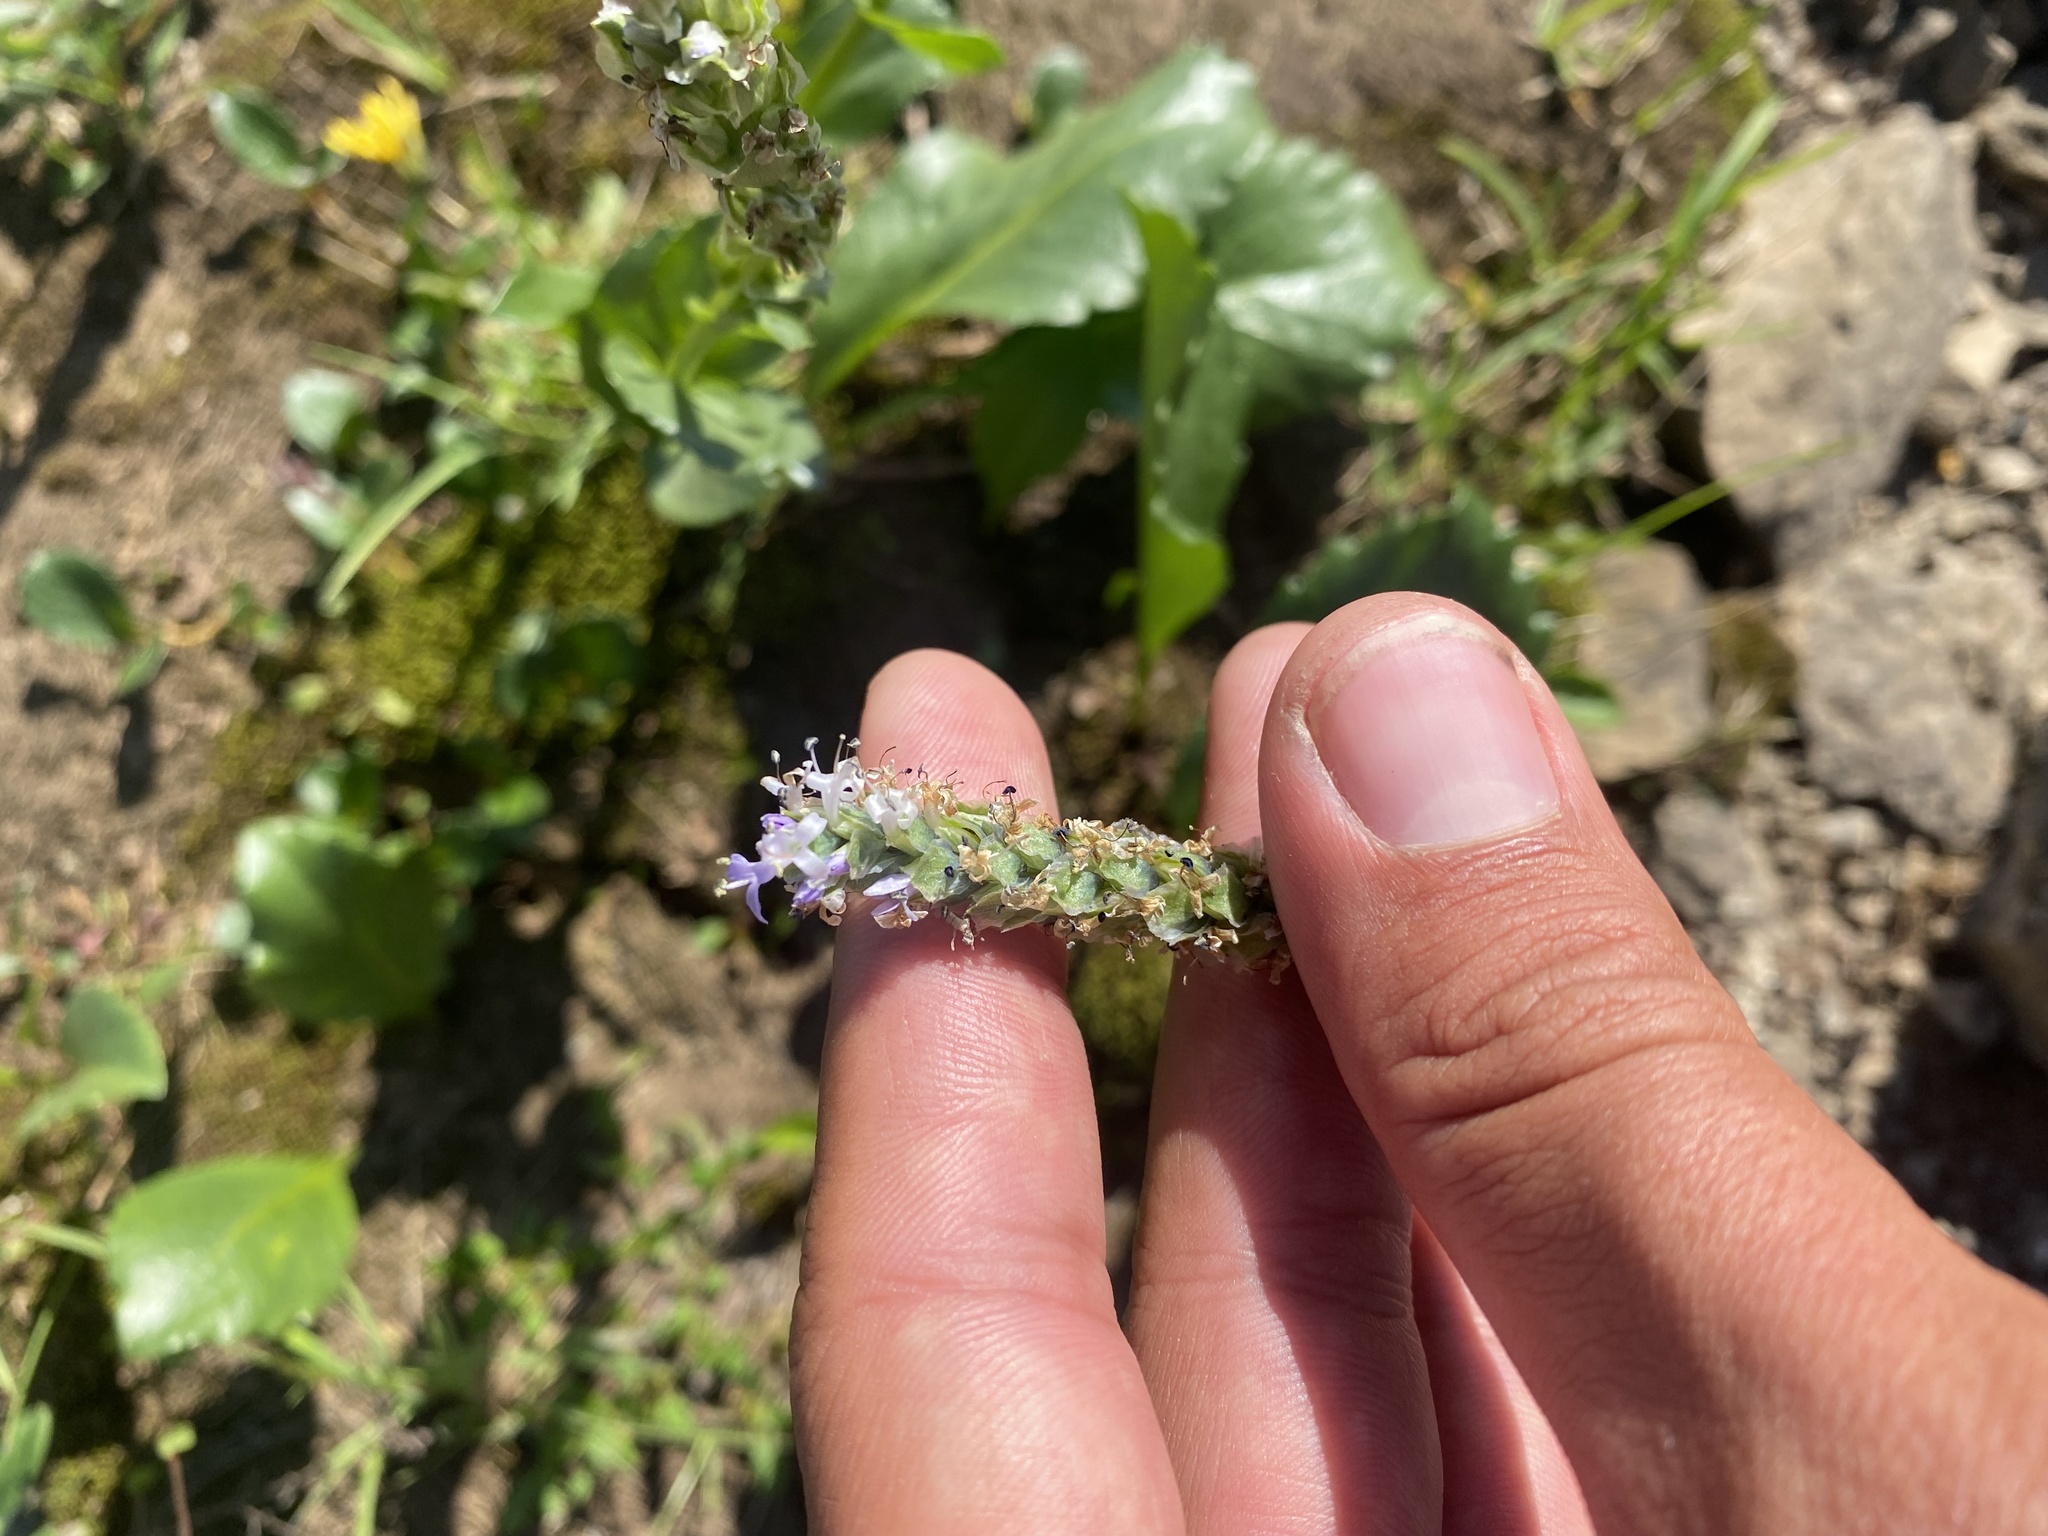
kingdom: Plantae
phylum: Tracheophyta
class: Magnoliopsida
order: Lamiales
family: Plantaginaceae
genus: Lagotis
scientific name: Lagotis glauca
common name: Glaucous weaselsnout
